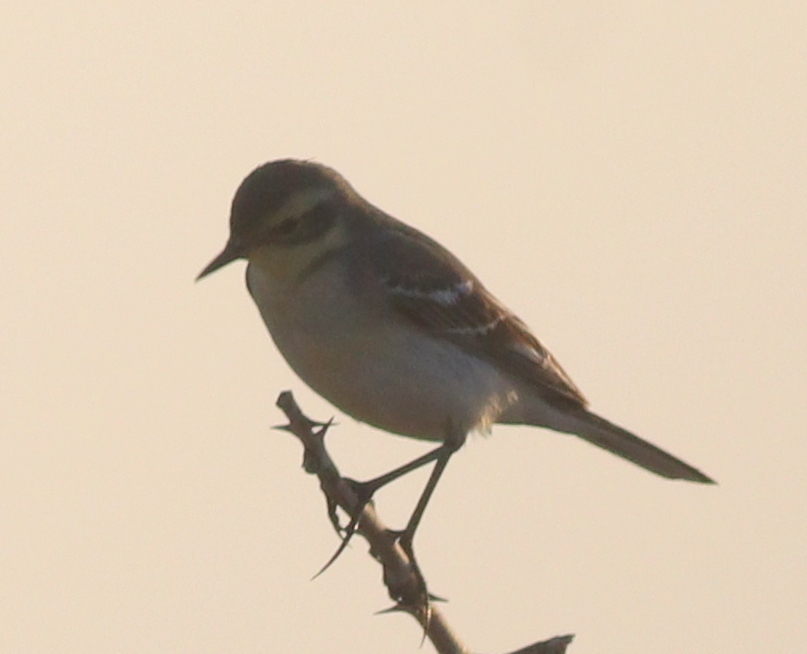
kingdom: Animalia
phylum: Chordata
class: Aves
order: Passeriformes
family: Motacillidae
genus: Motacilla
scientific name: Motacilla flava
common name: Western yellow wagtail
